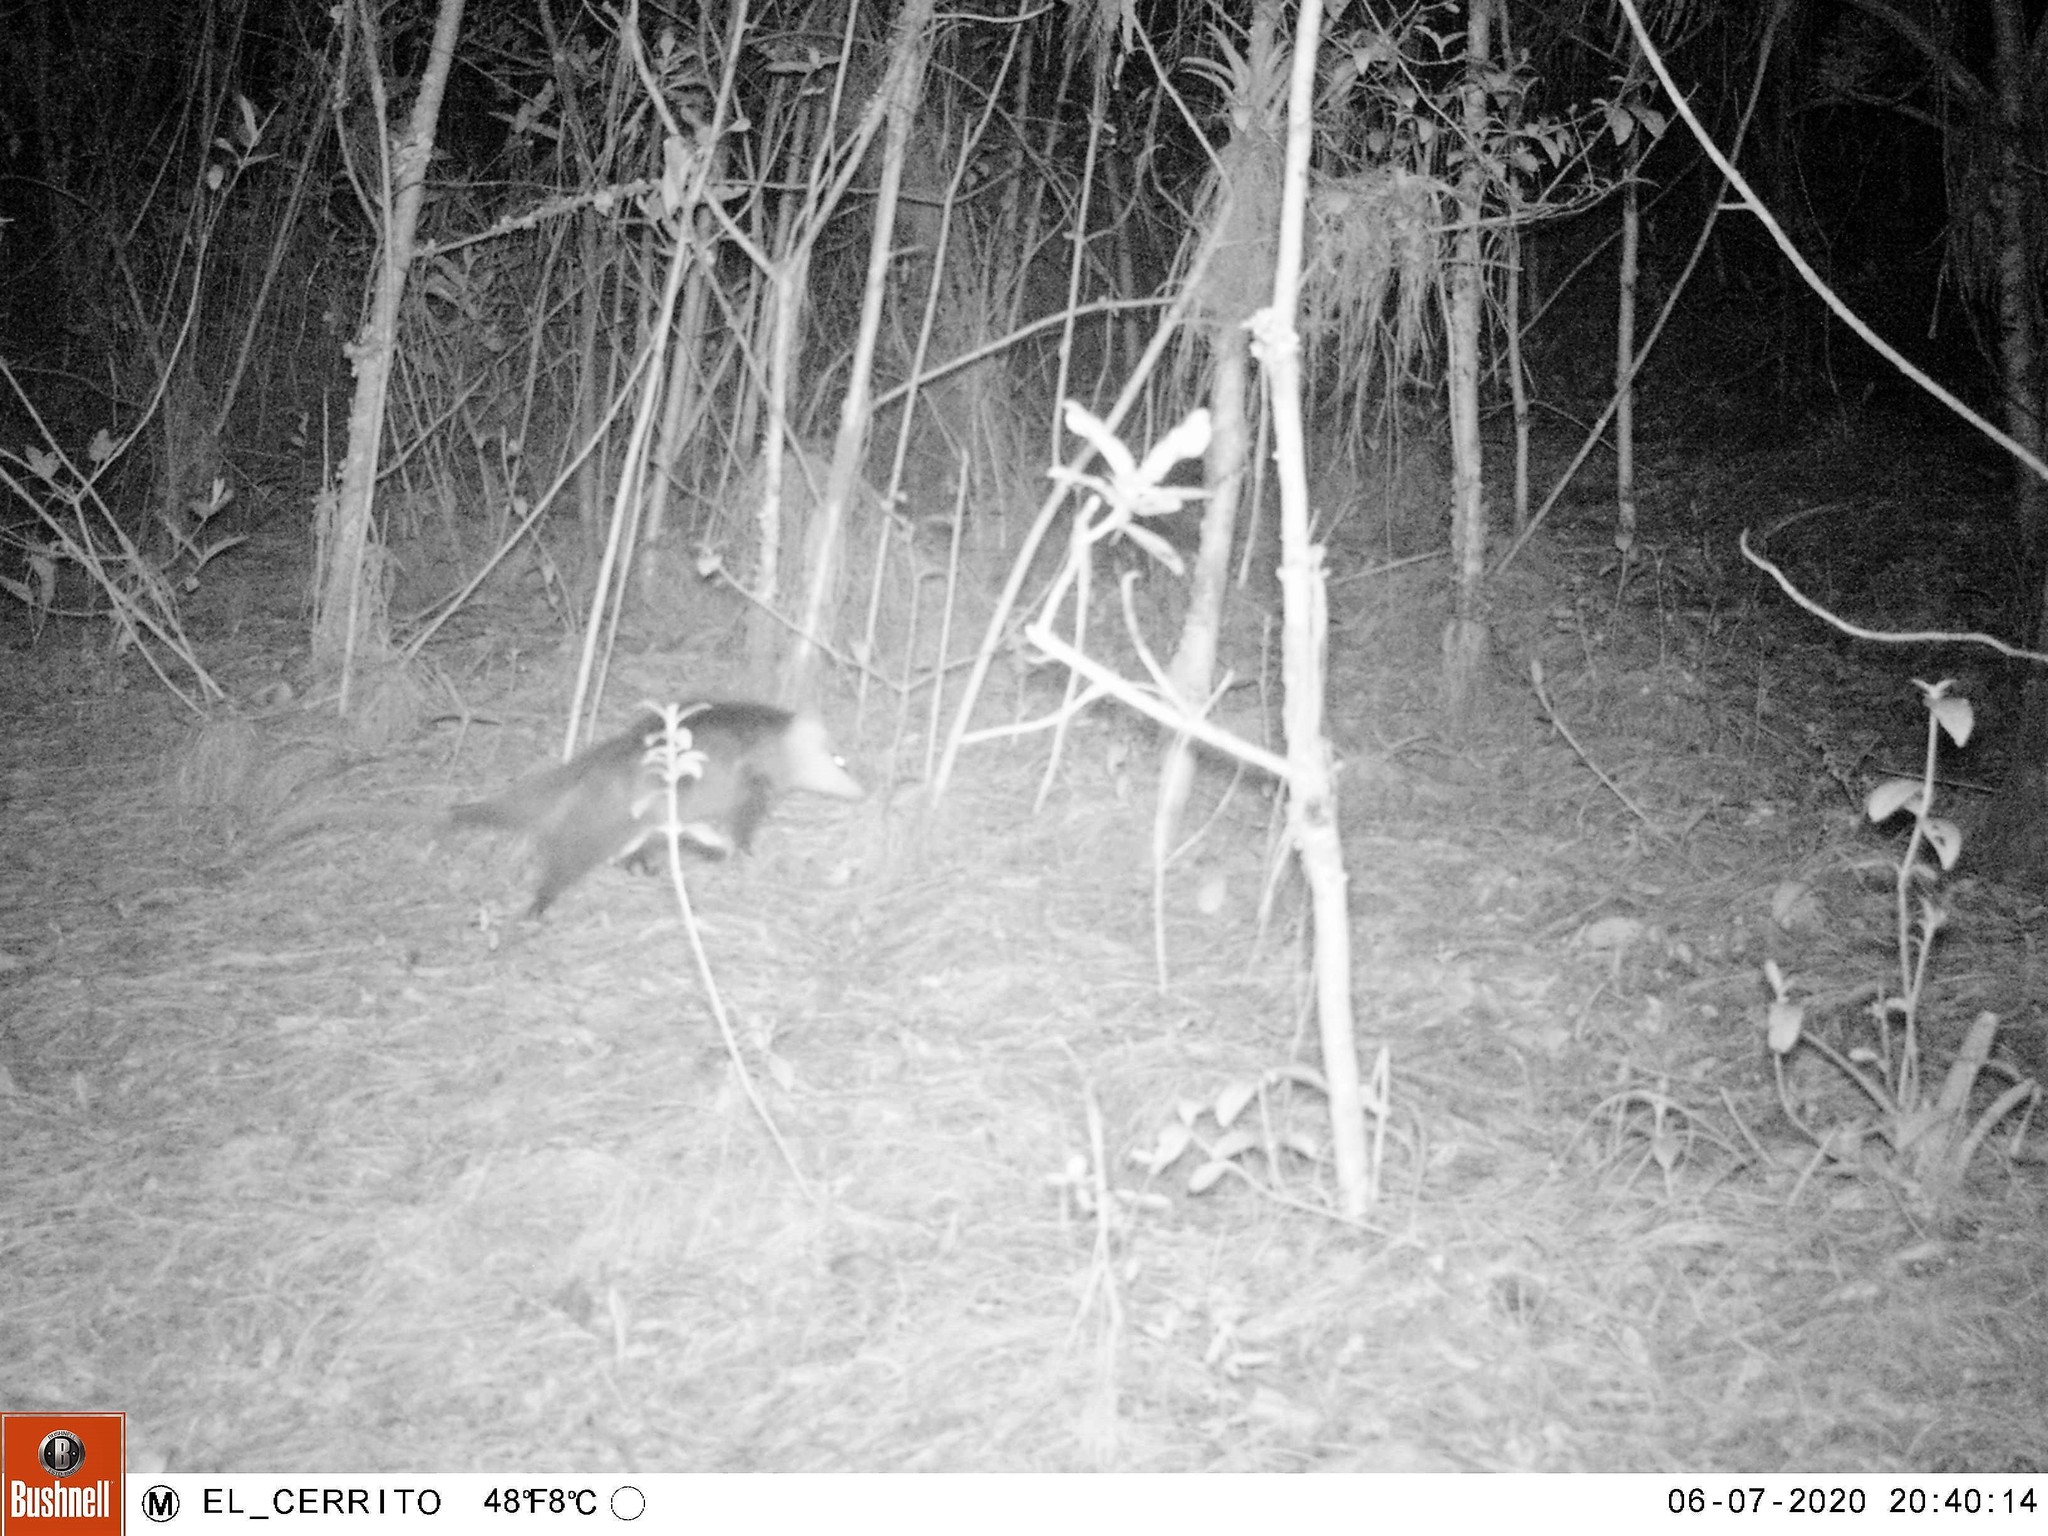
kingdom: Animalia
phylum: Chordata
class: Mammalia
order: Didelphimorphia
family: Didelphidae
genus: Didelphis
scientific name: Didelphis pernigra
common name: Andean white-eared opossum
